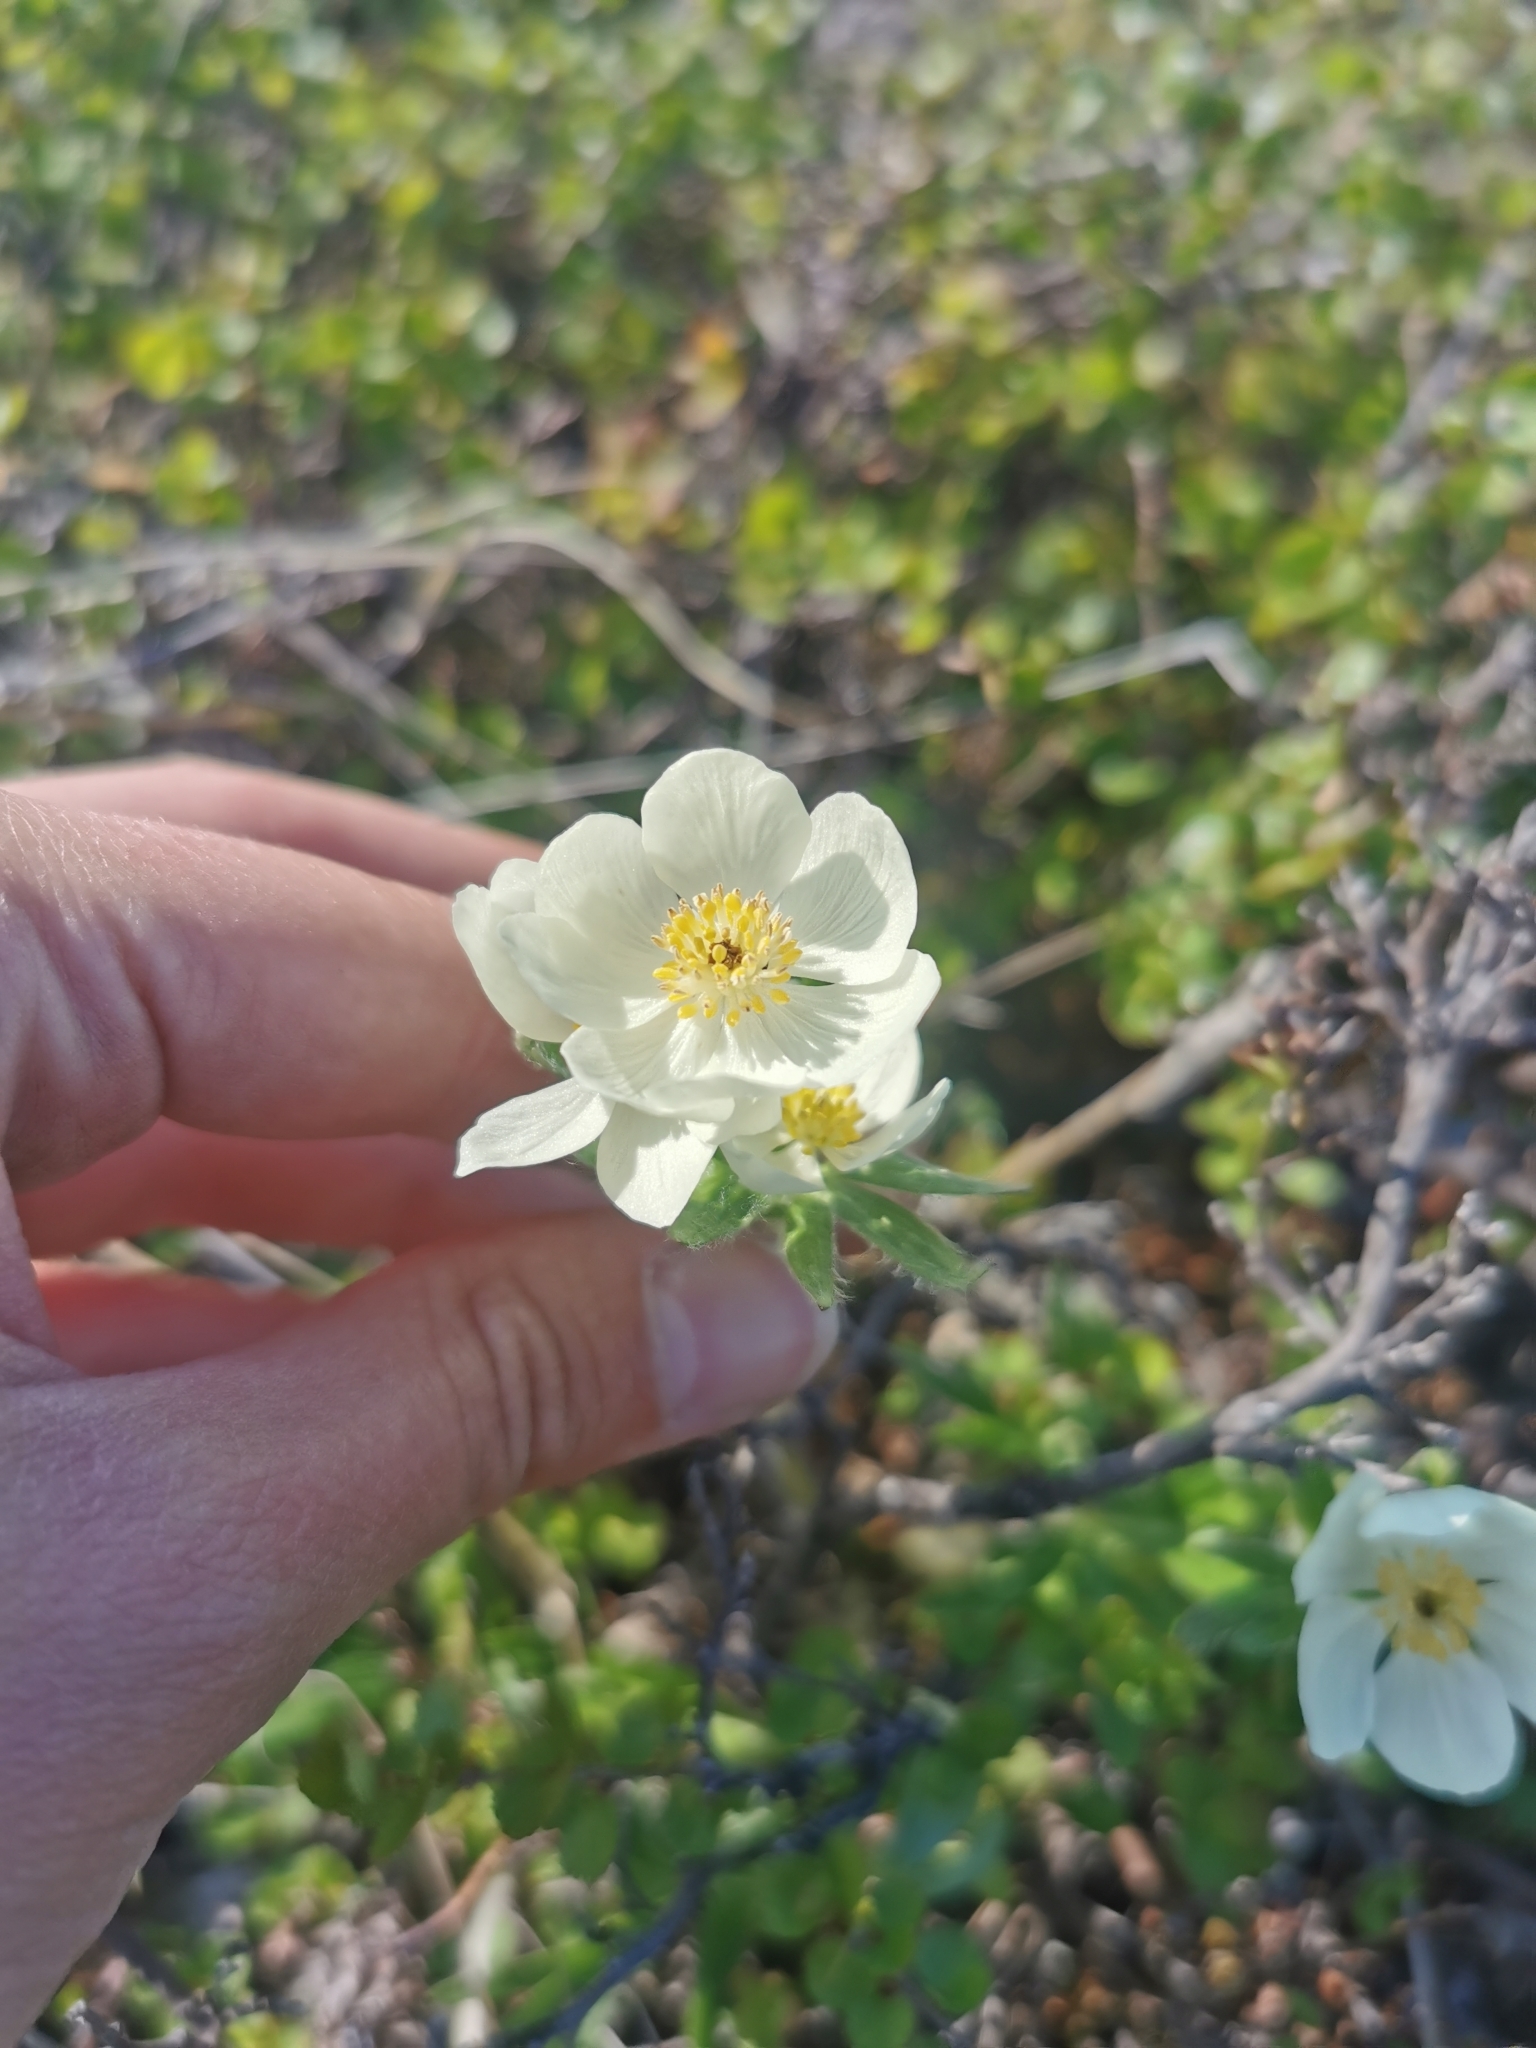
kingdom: Plantae
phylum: Tracheophyta
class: Magnoliopsida
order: Ranunculales
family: Ranunculaceae
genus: Anemonastrum
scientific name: Anemonastrum narcissiflorum
